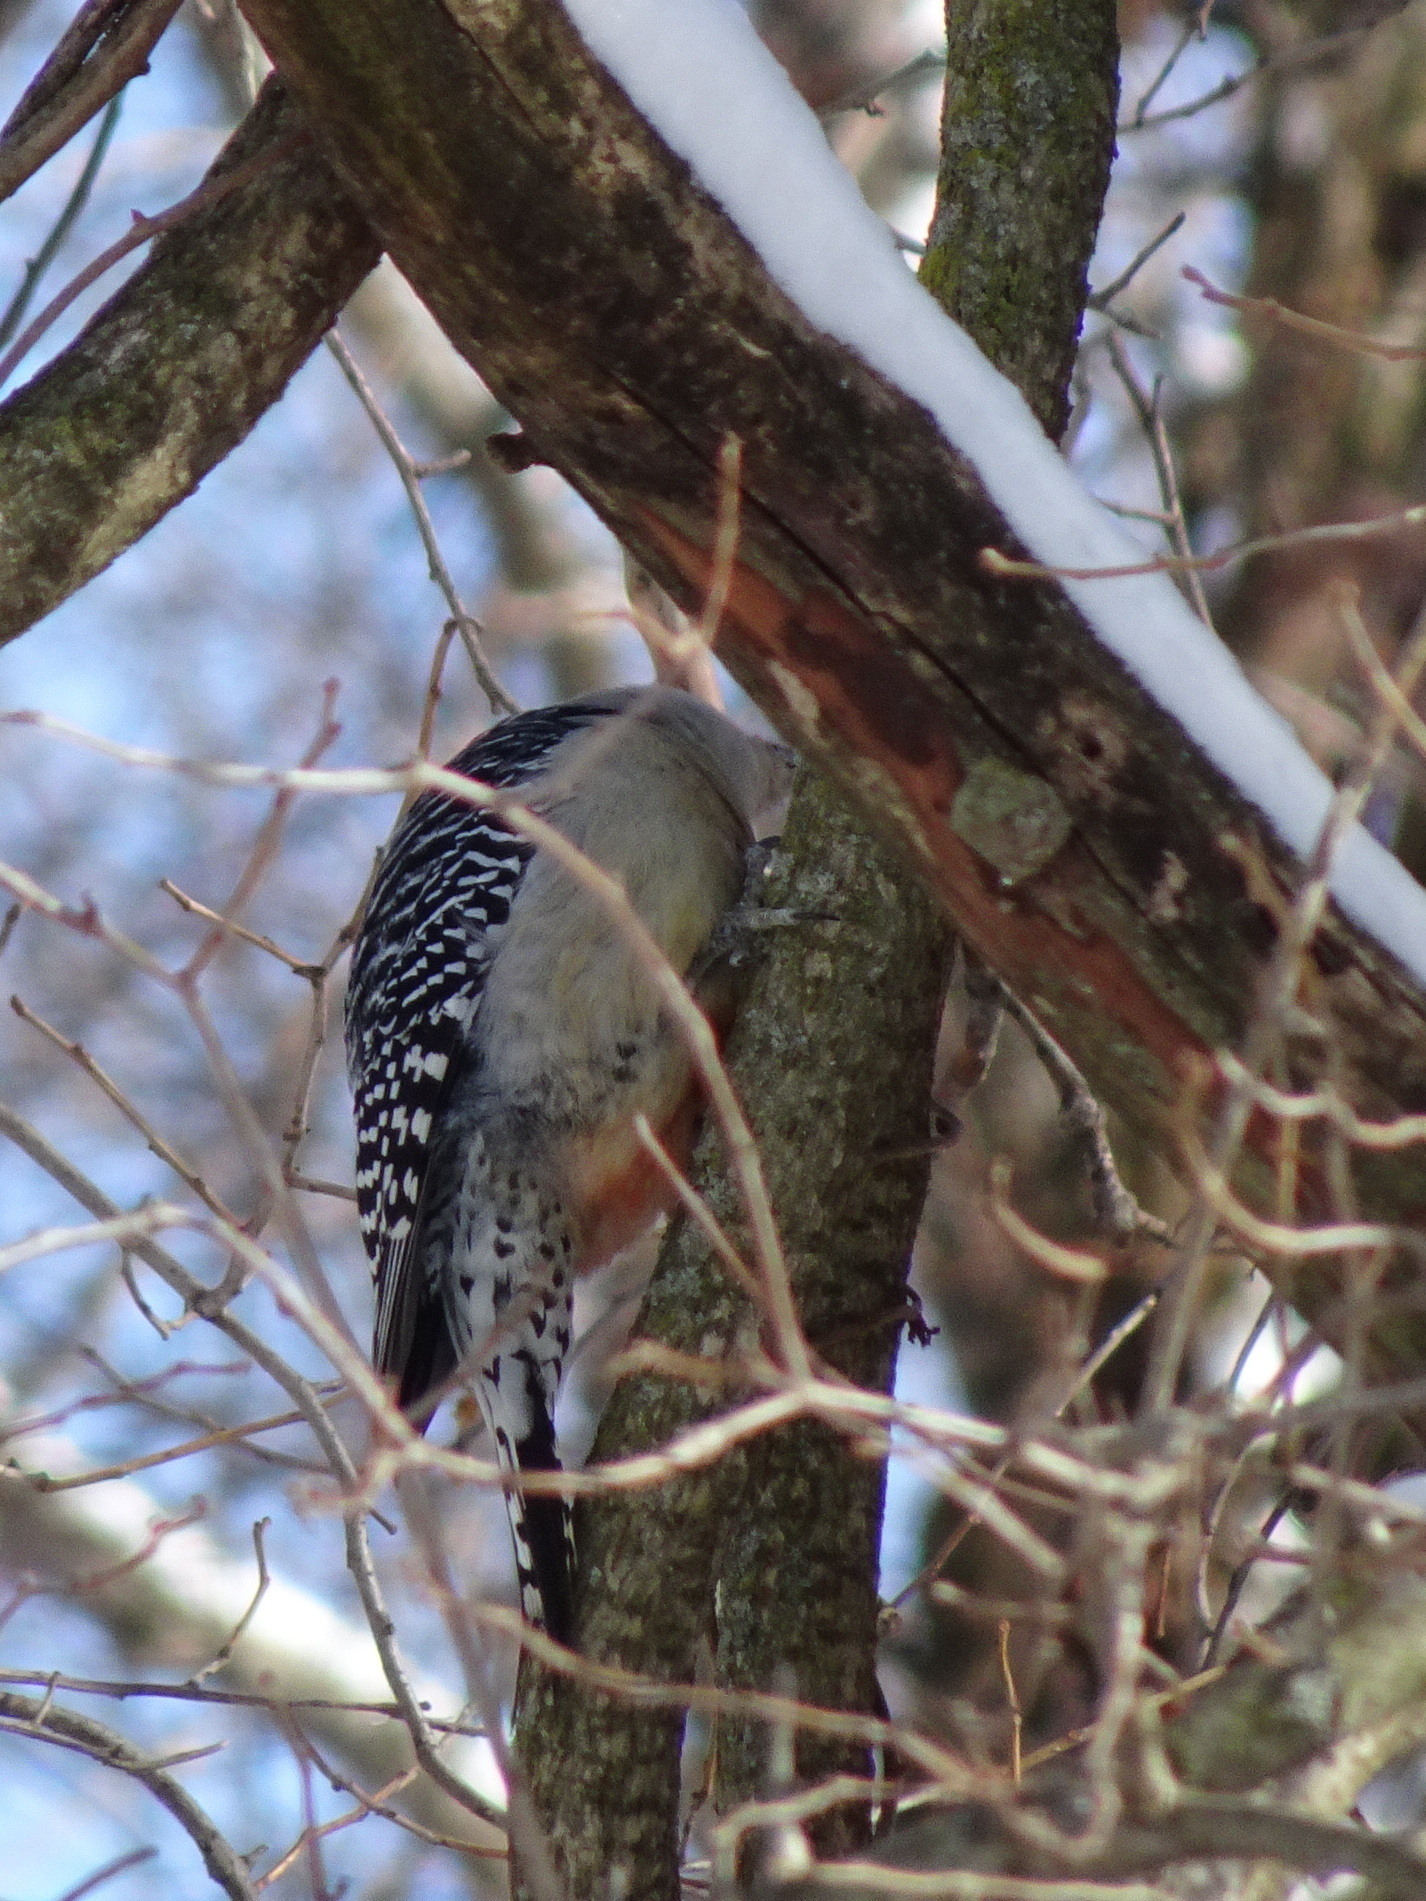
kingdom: Animalia
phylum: Chordata
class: Aves
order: Piciformes
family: Picidae
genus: Melanerpes
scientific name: Melanerpes carolinus
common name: Red-bellied woodpecker
